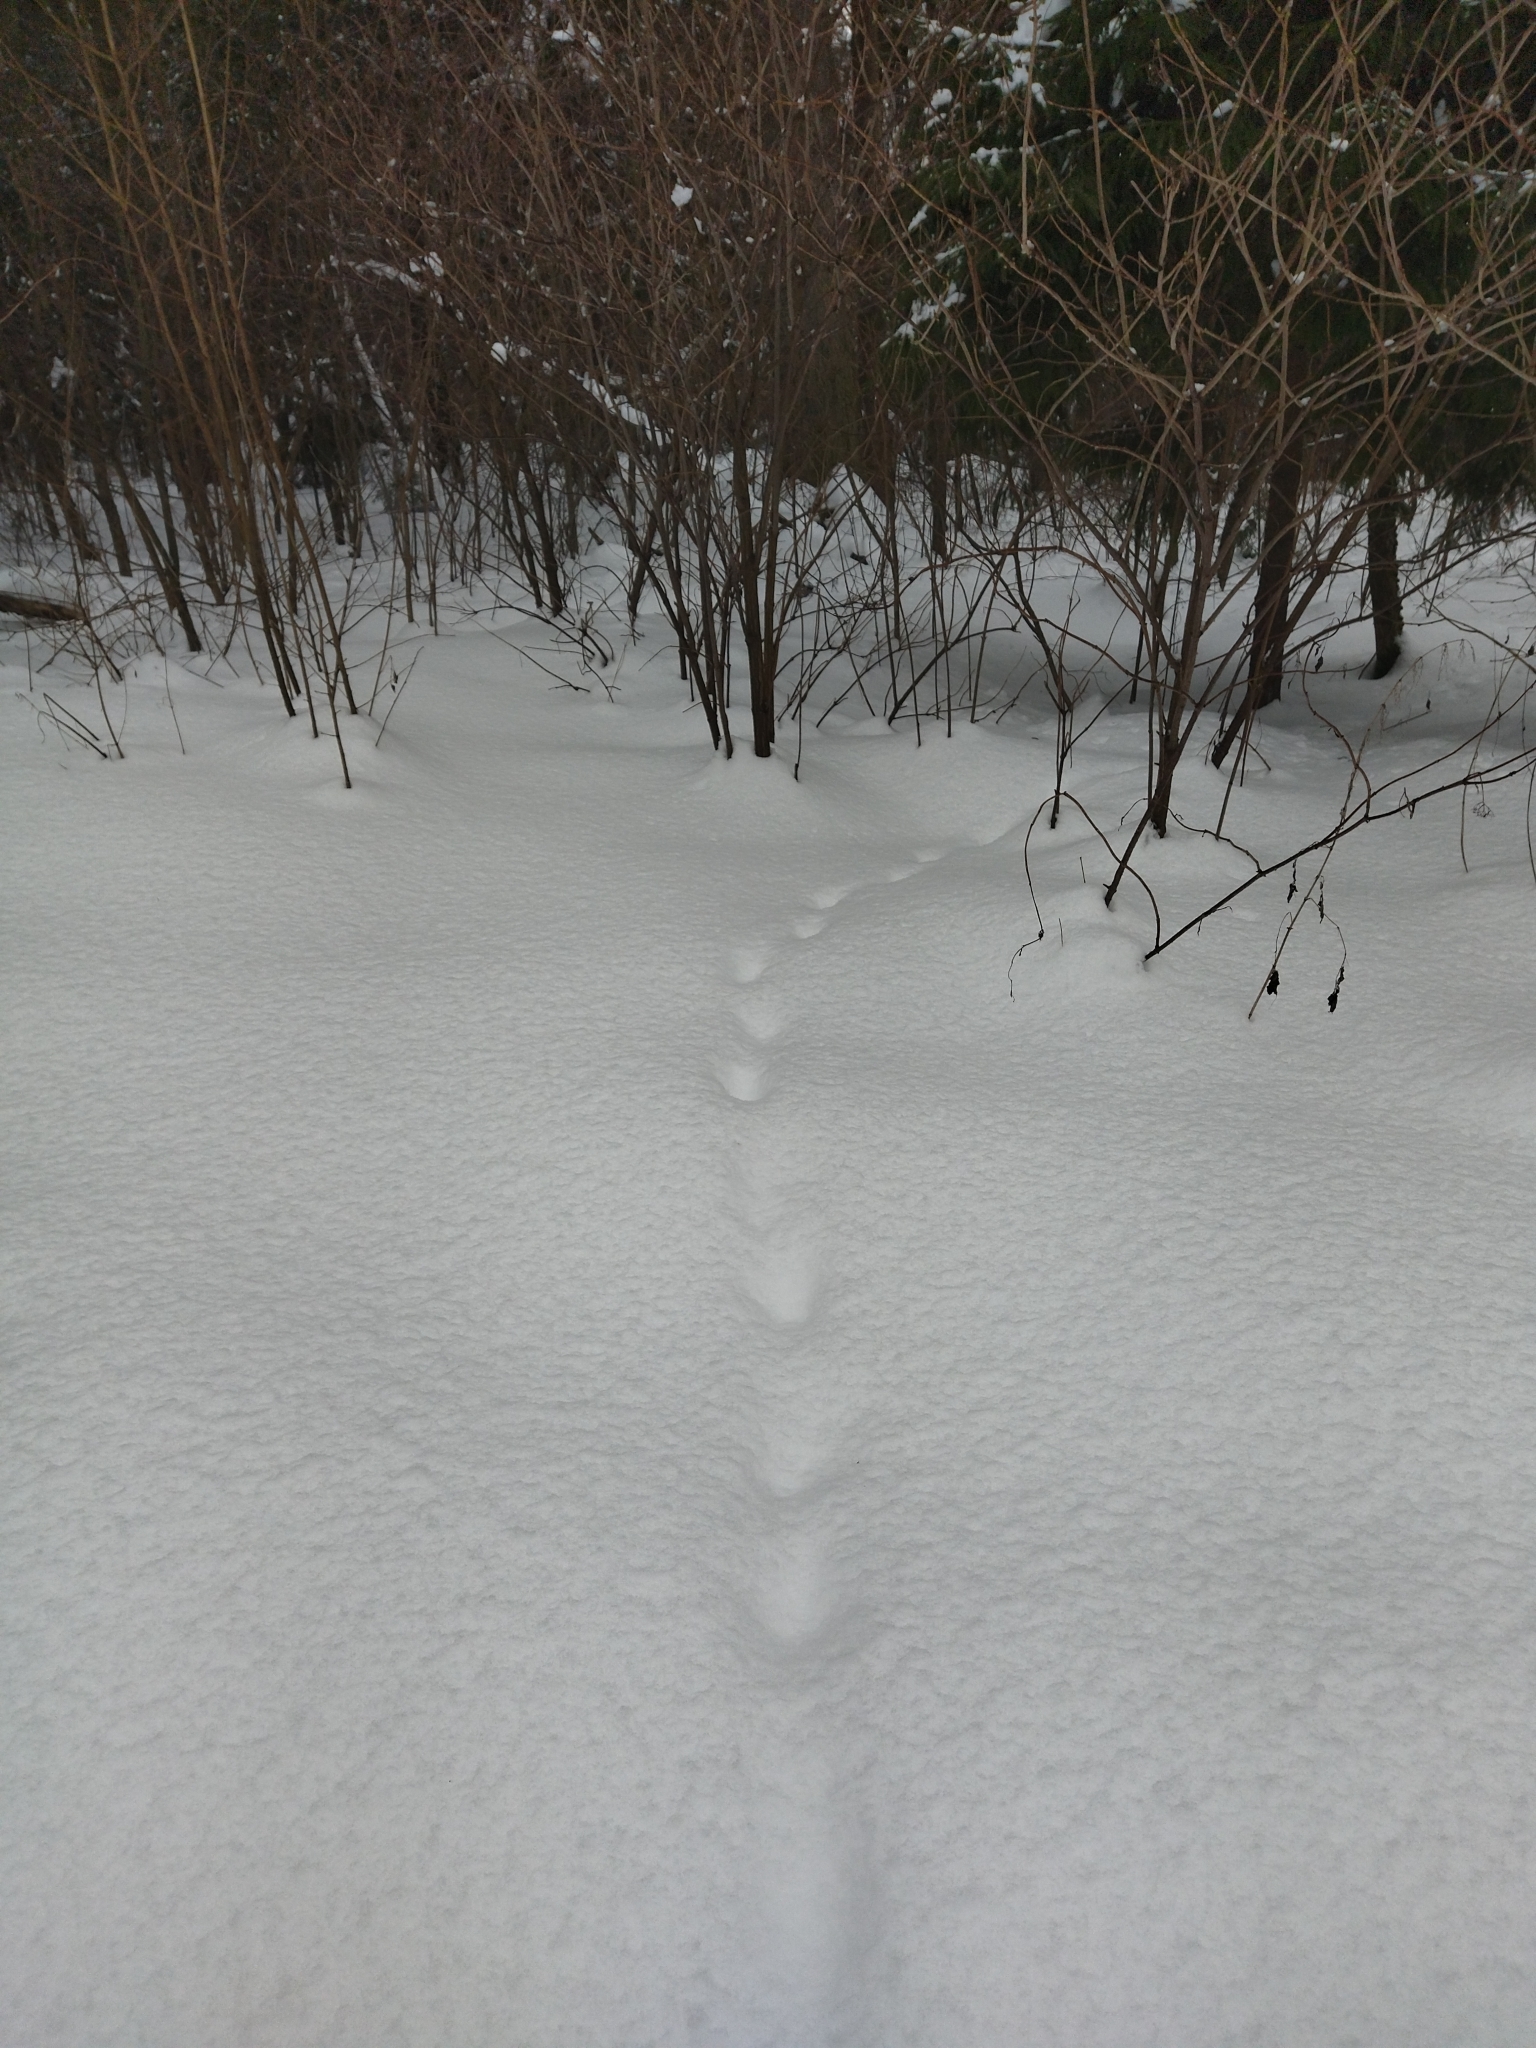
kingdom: Animalia
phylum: Chordata
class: Mammalia
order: Carnivora
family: Canidae
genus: Vulpes
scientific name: Vulpes vulpes
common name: Red fox
